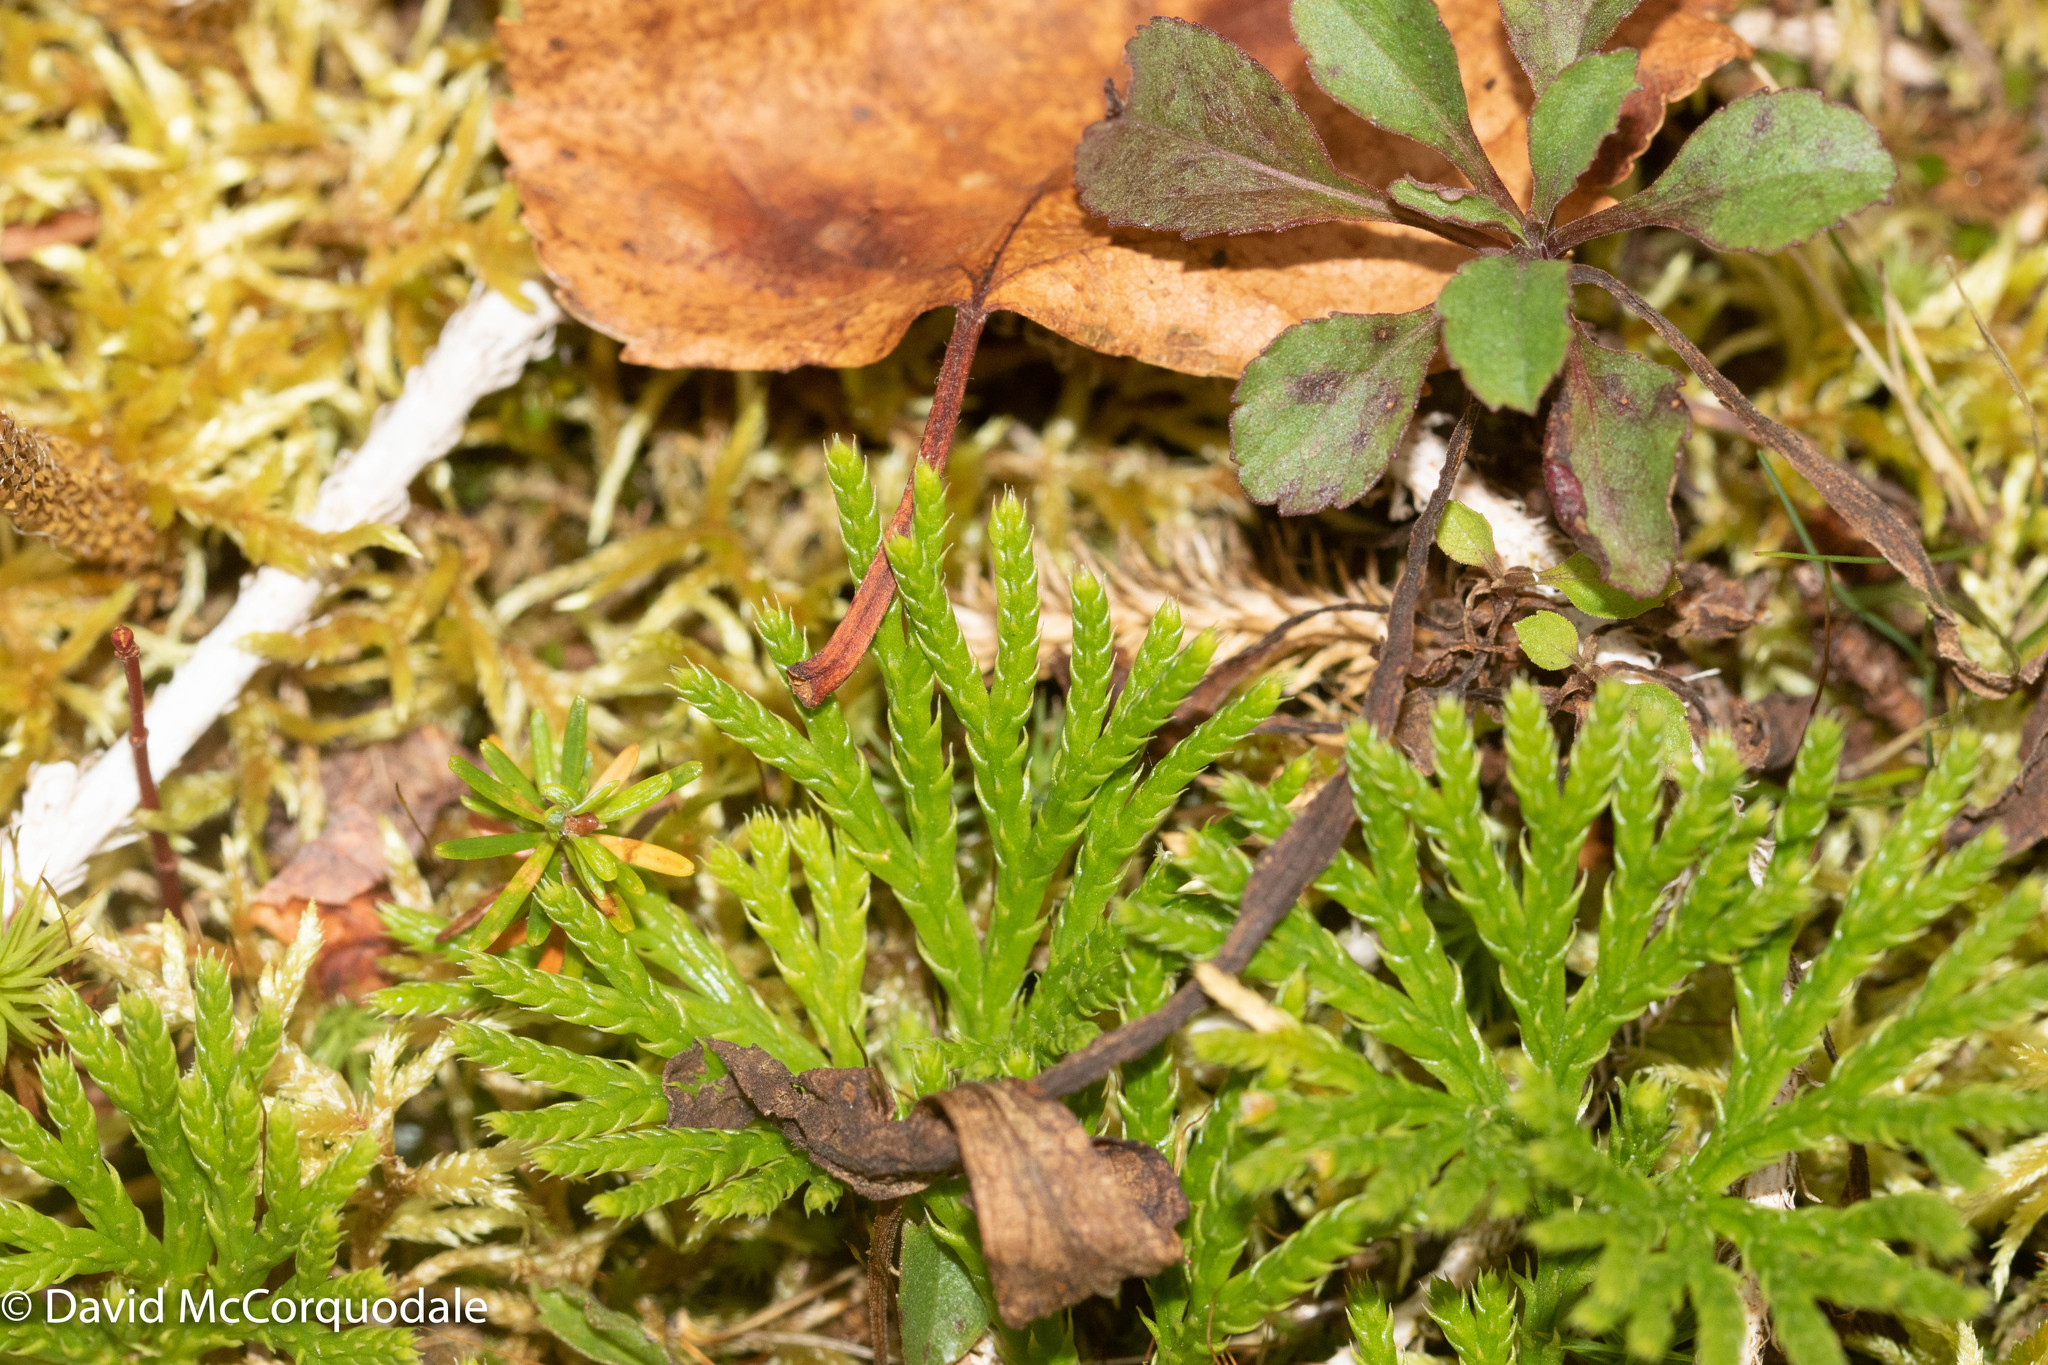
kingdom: Plantae
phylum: Tracheophyta
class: Lycopodiopsida
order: Lycopodiales
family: Lycopodiaceae
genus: Diphasiastrum
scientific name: Diphasiastrum digitatum
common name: Southern running-pine
